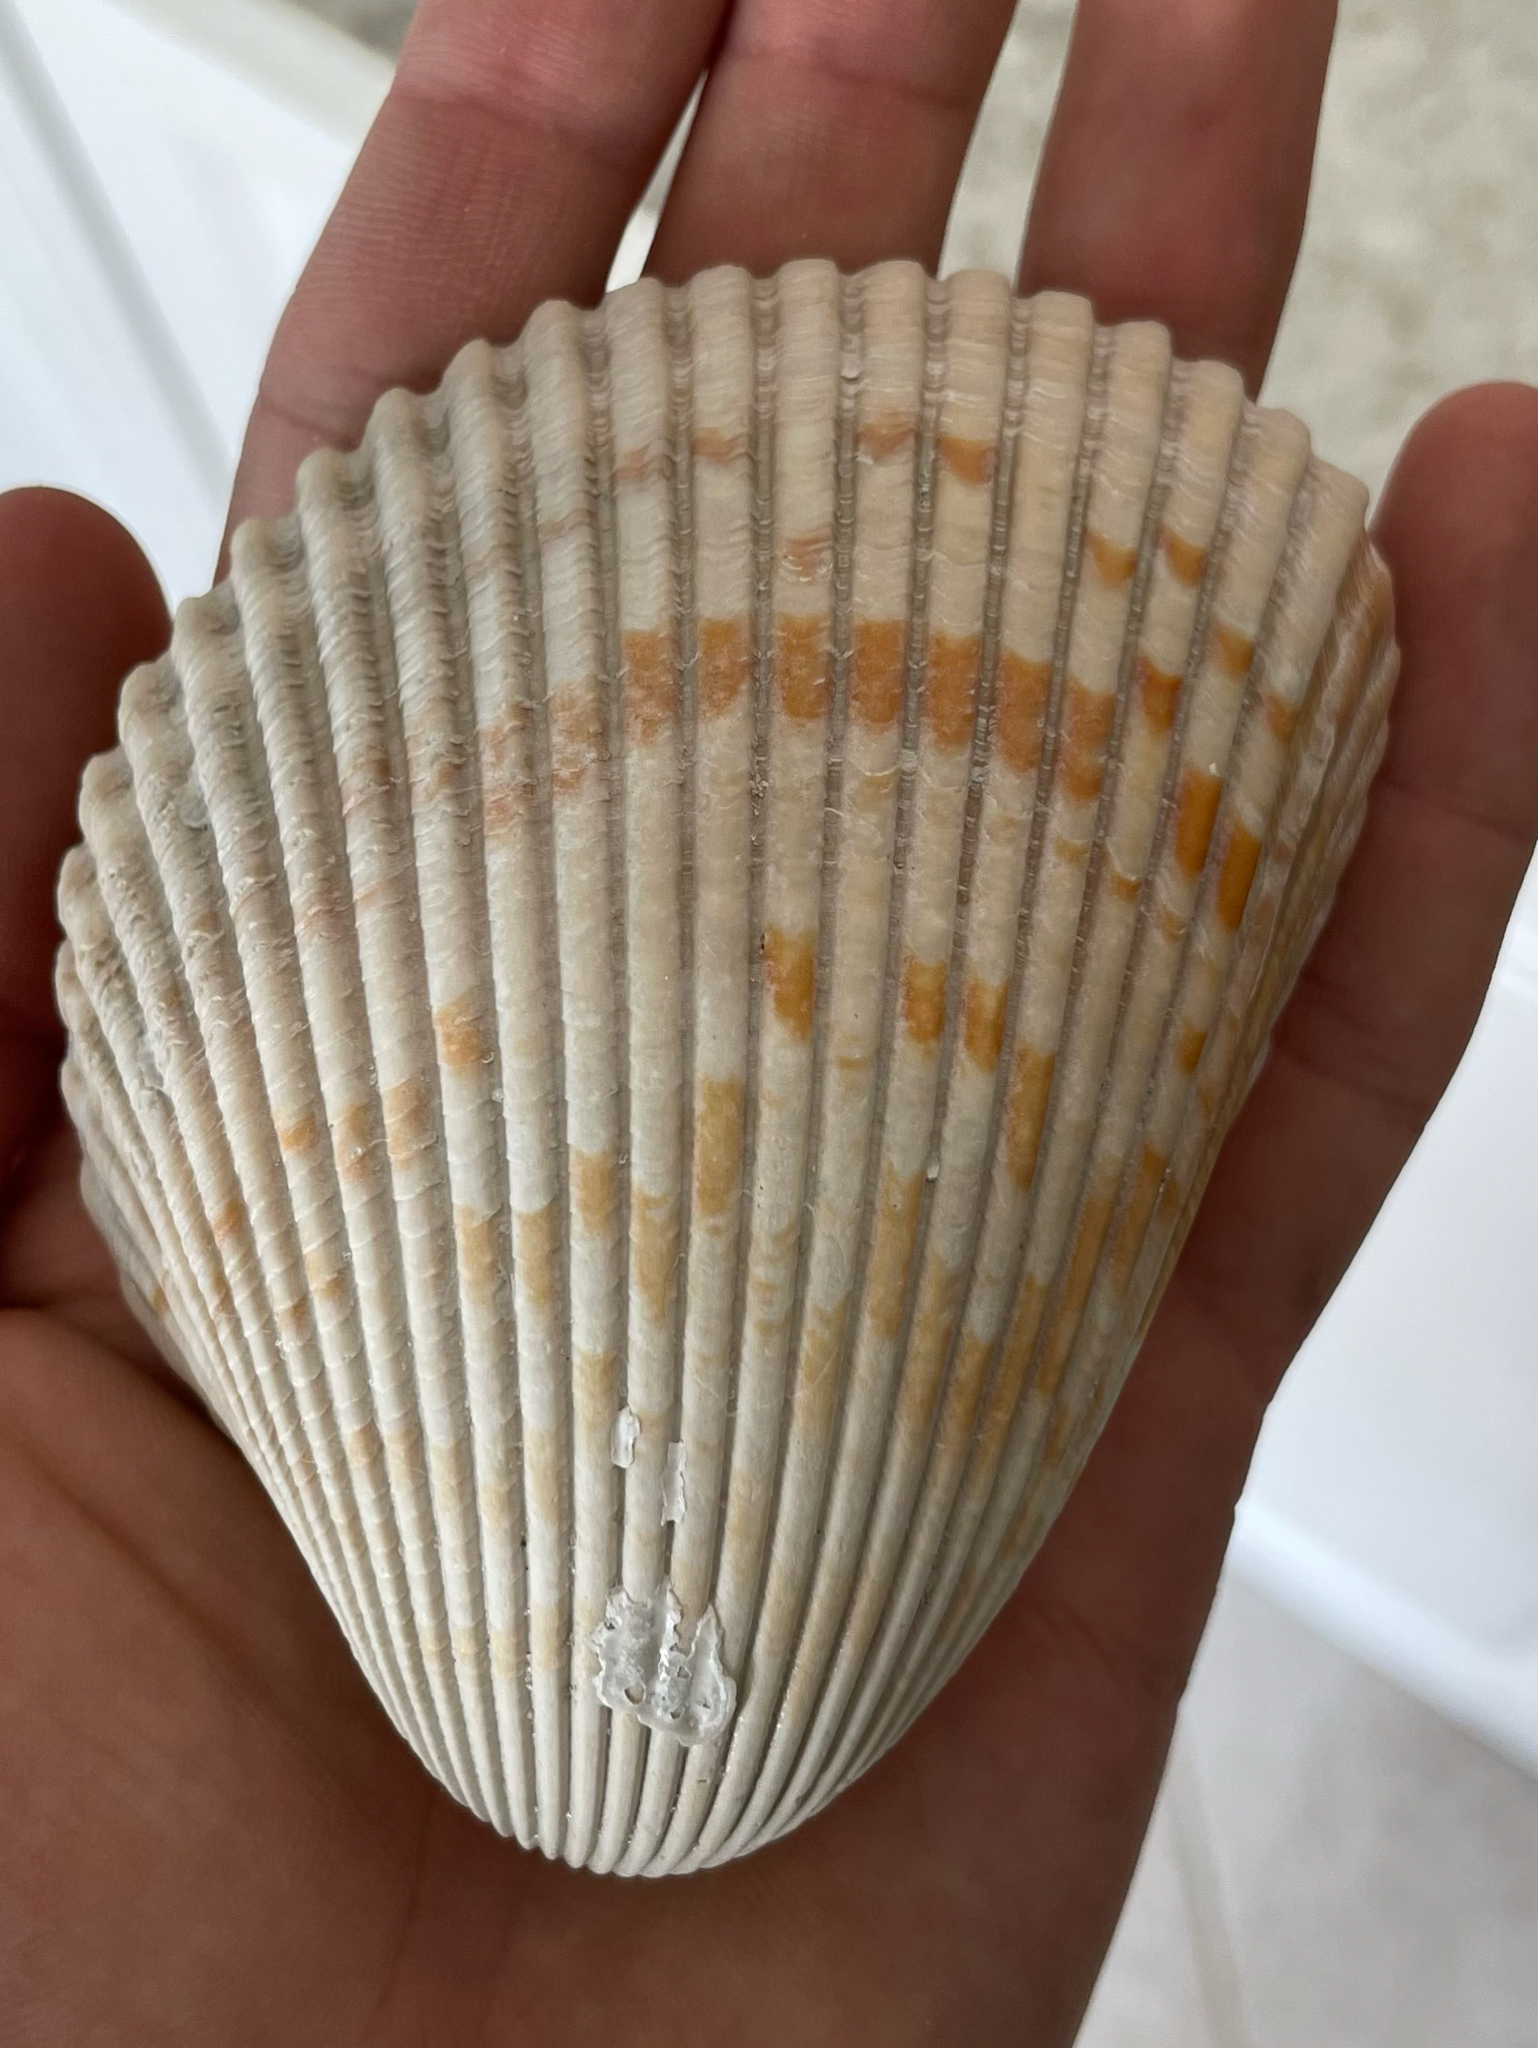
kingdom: Animalia
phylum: Mollusca
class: Bivalvia
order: Cardiida
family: Cardiidae
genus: Dinocardium
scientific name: Dinocardium robustum
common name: Atlantic giant cockle
